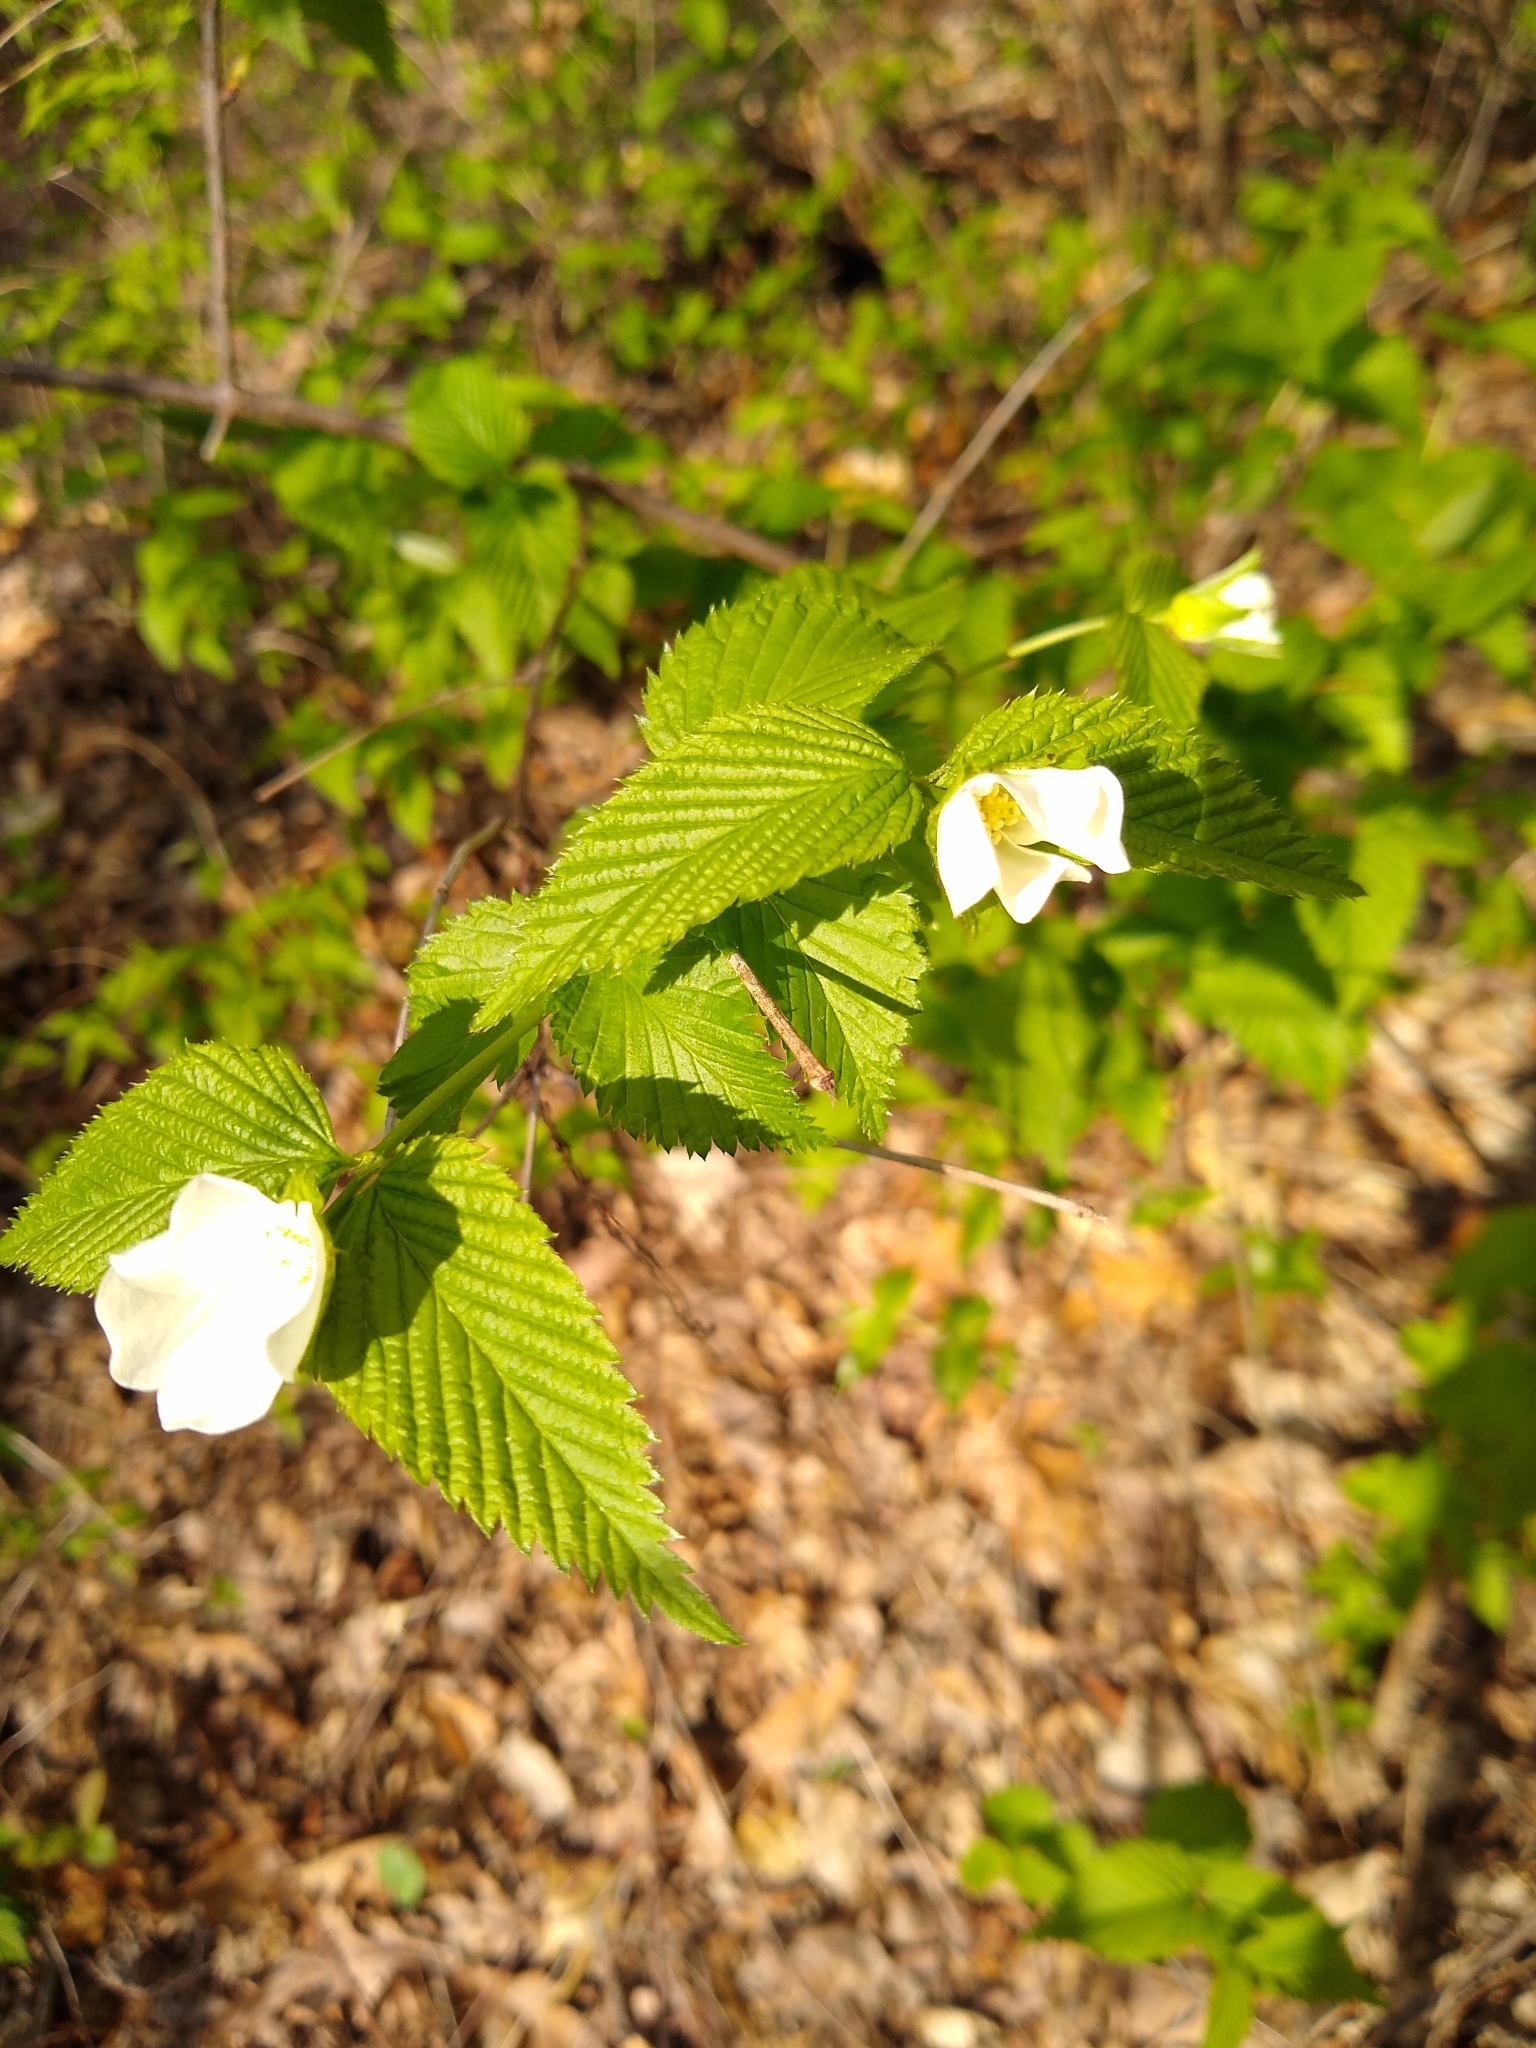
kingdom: Plantae
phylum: Tracheophyta
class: Magnoliopsida
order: Rosales
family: Rosaceae
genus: Rhodotypos
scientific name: Rhodotypos scandens
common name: Jetbead
